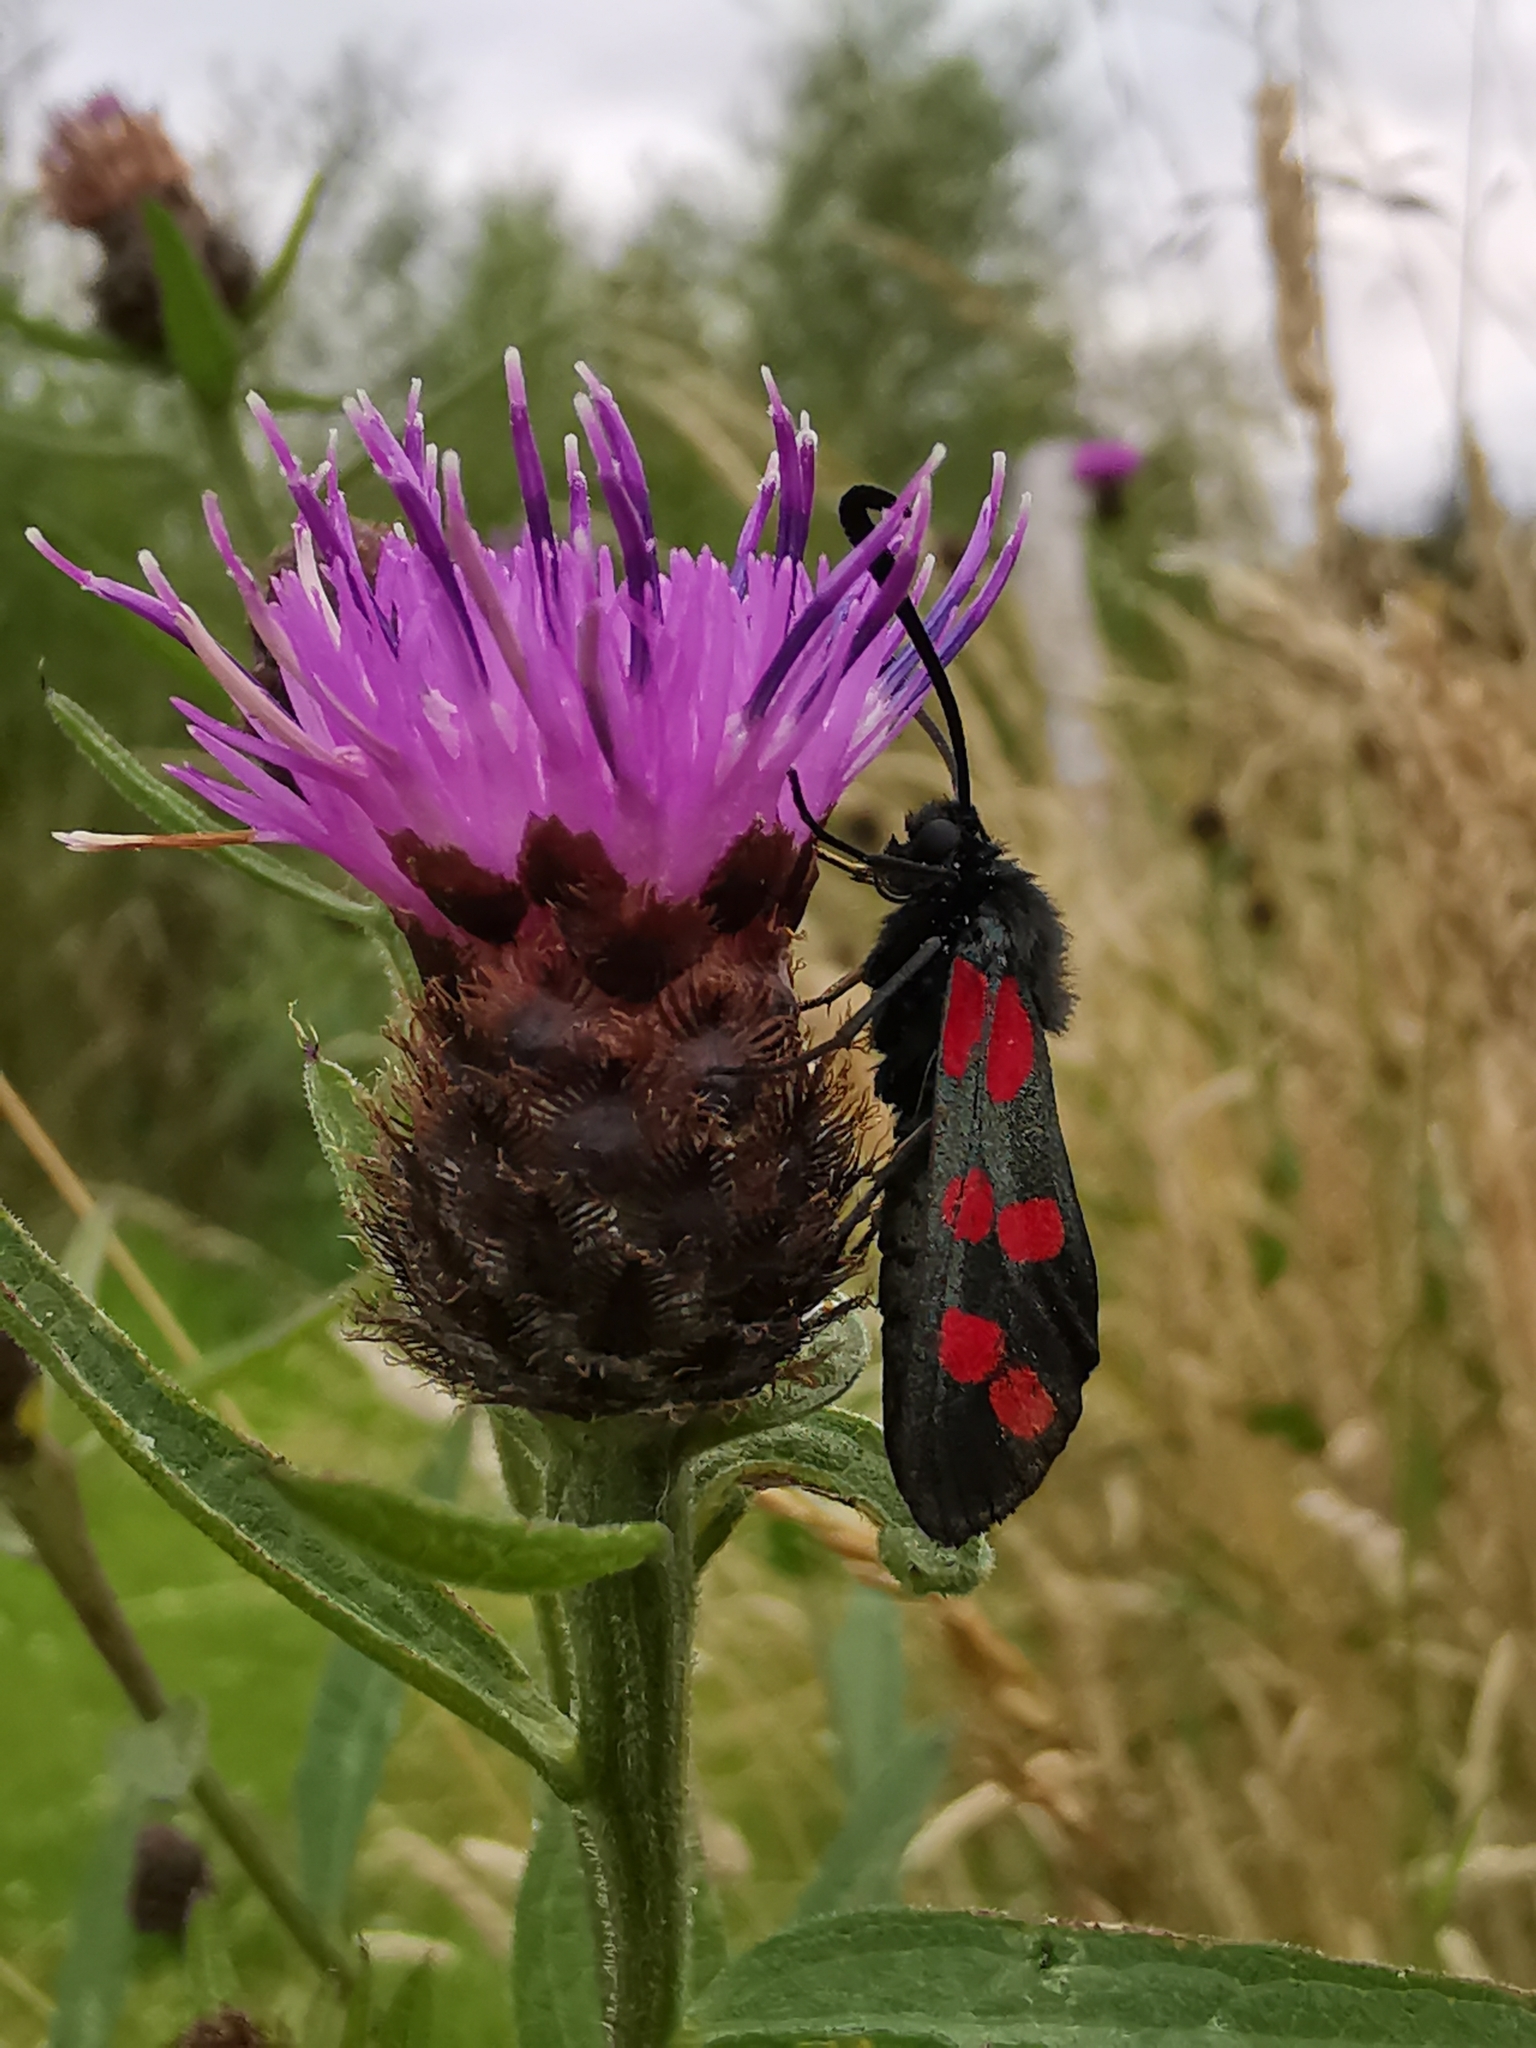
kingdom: Animalia
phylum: Arthropoda
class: Insecta
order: Lepidoptera
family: Zygaenidae
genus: Zygaena
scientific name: Zygaena filipendulae
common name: Six-spot burnet
